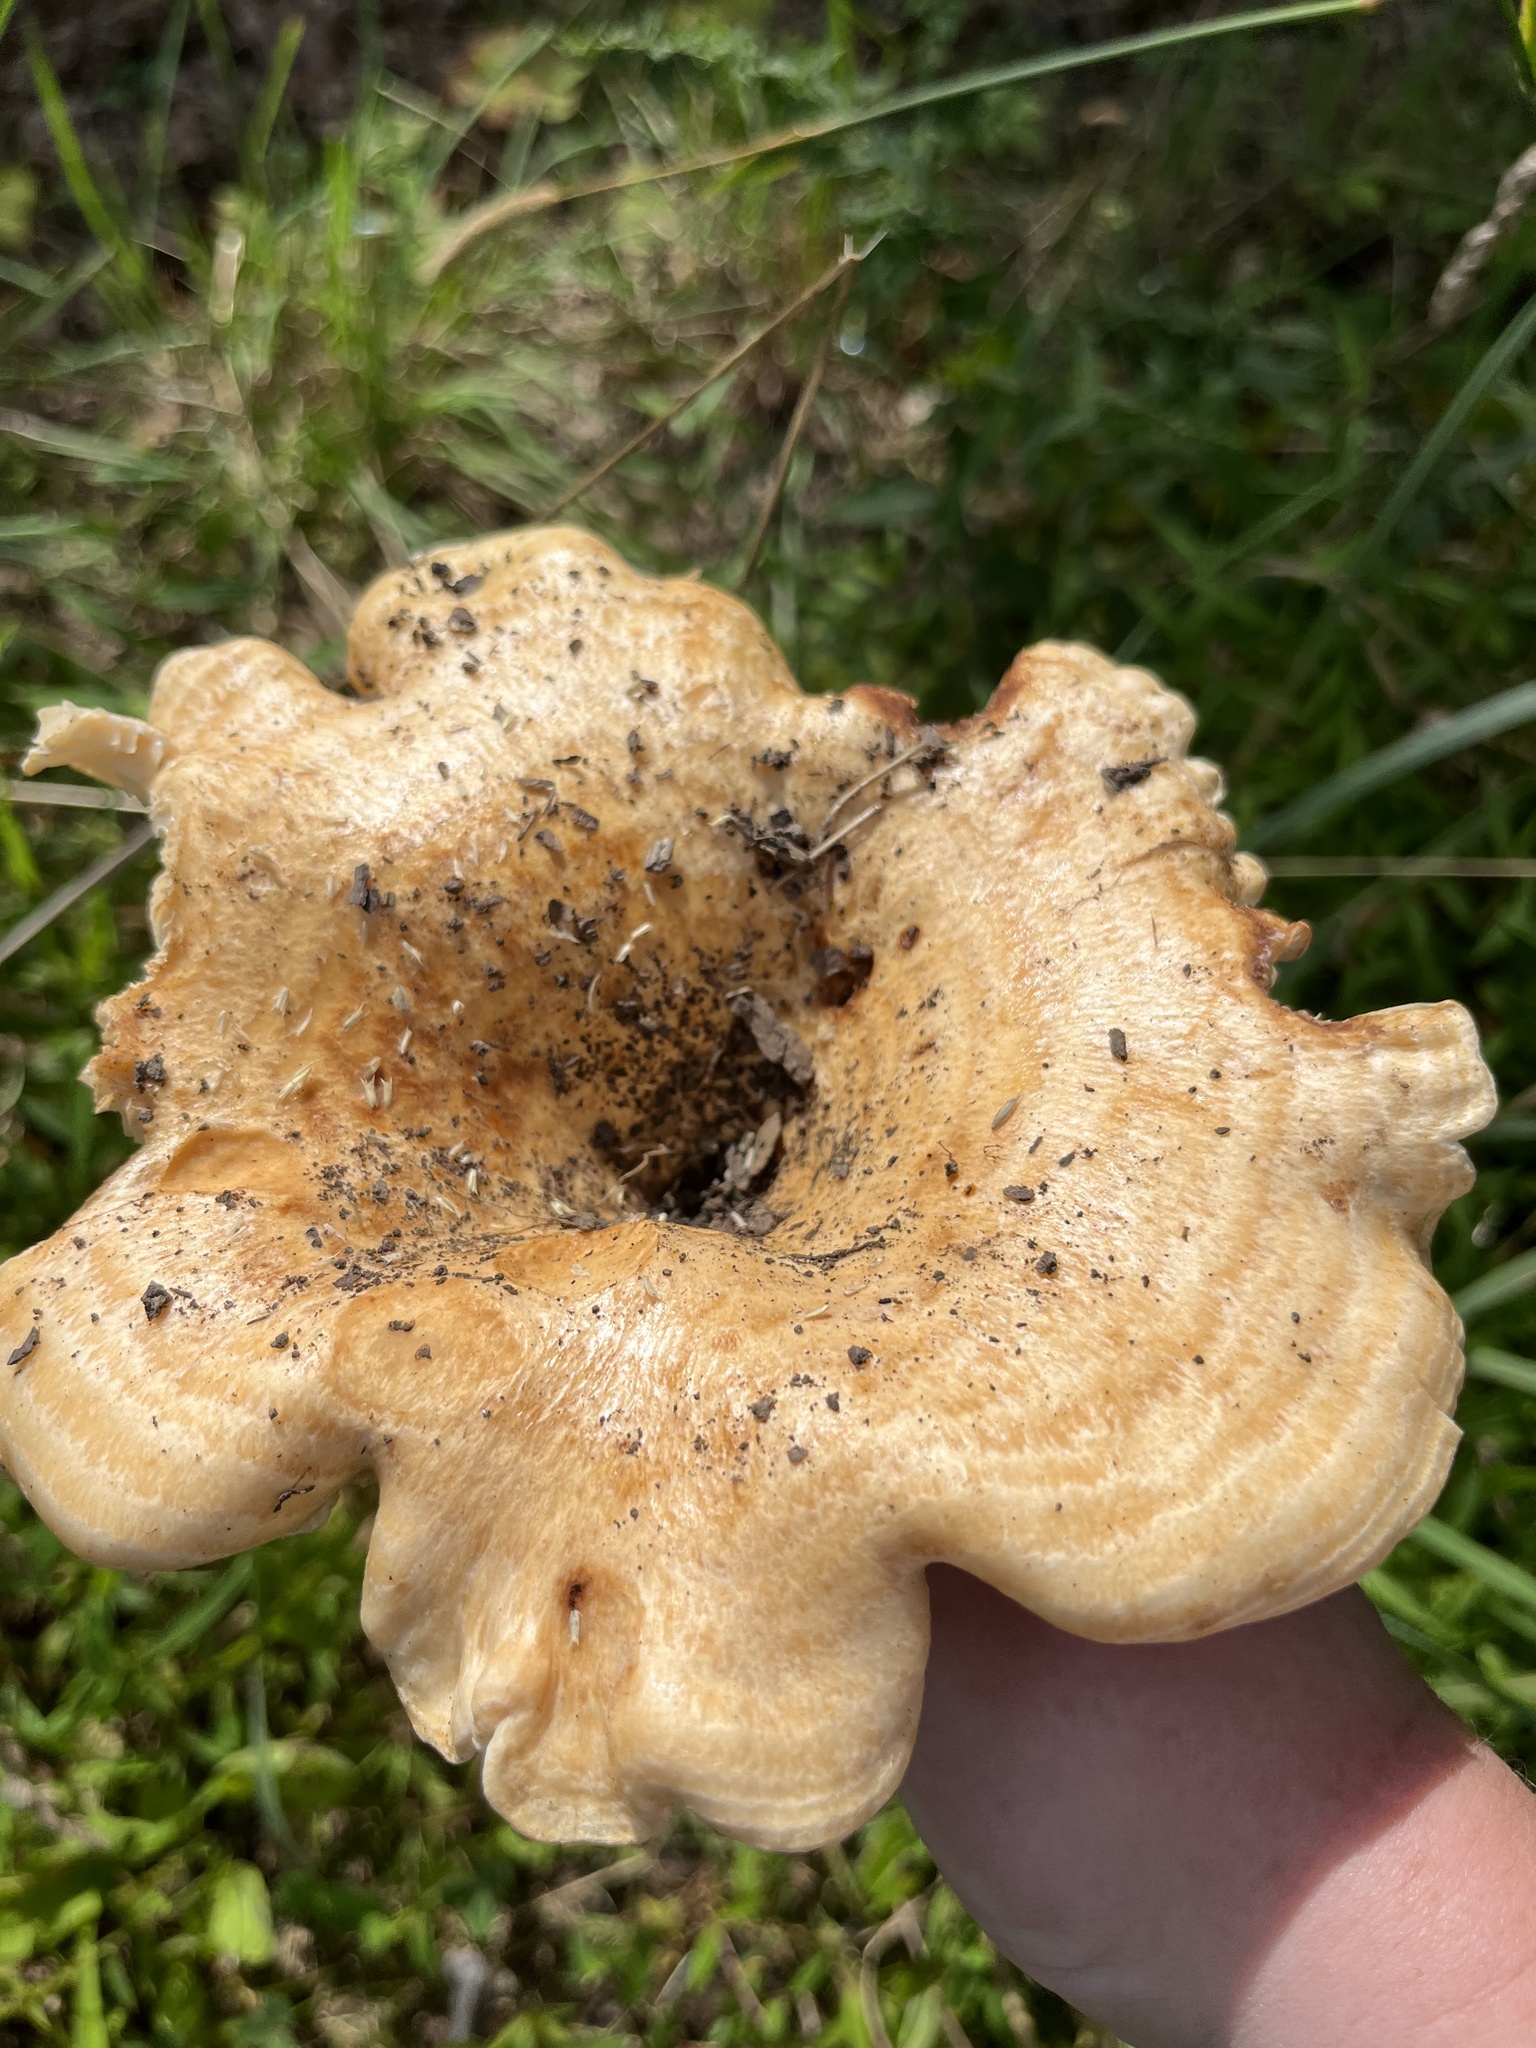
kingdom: Fungi
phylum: Basidiomycota
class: Agaricomycetes
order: Russulales
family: Russulaceae
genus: Lactarius
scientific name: Lactarius psammicola
